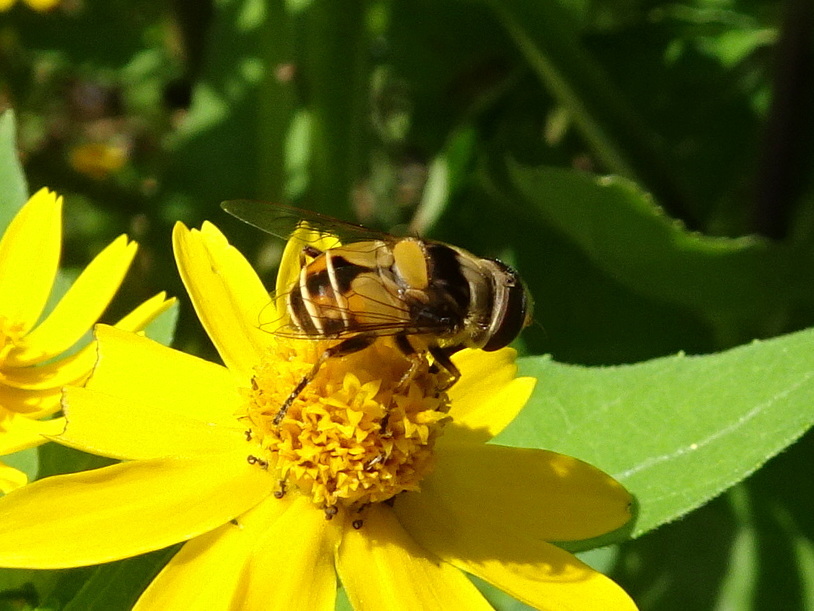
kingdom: Animalia
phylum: Arthropoda
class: Insecta
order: Diptera
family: Syrphidae
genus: Palpada
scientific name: Palpada pusilla
